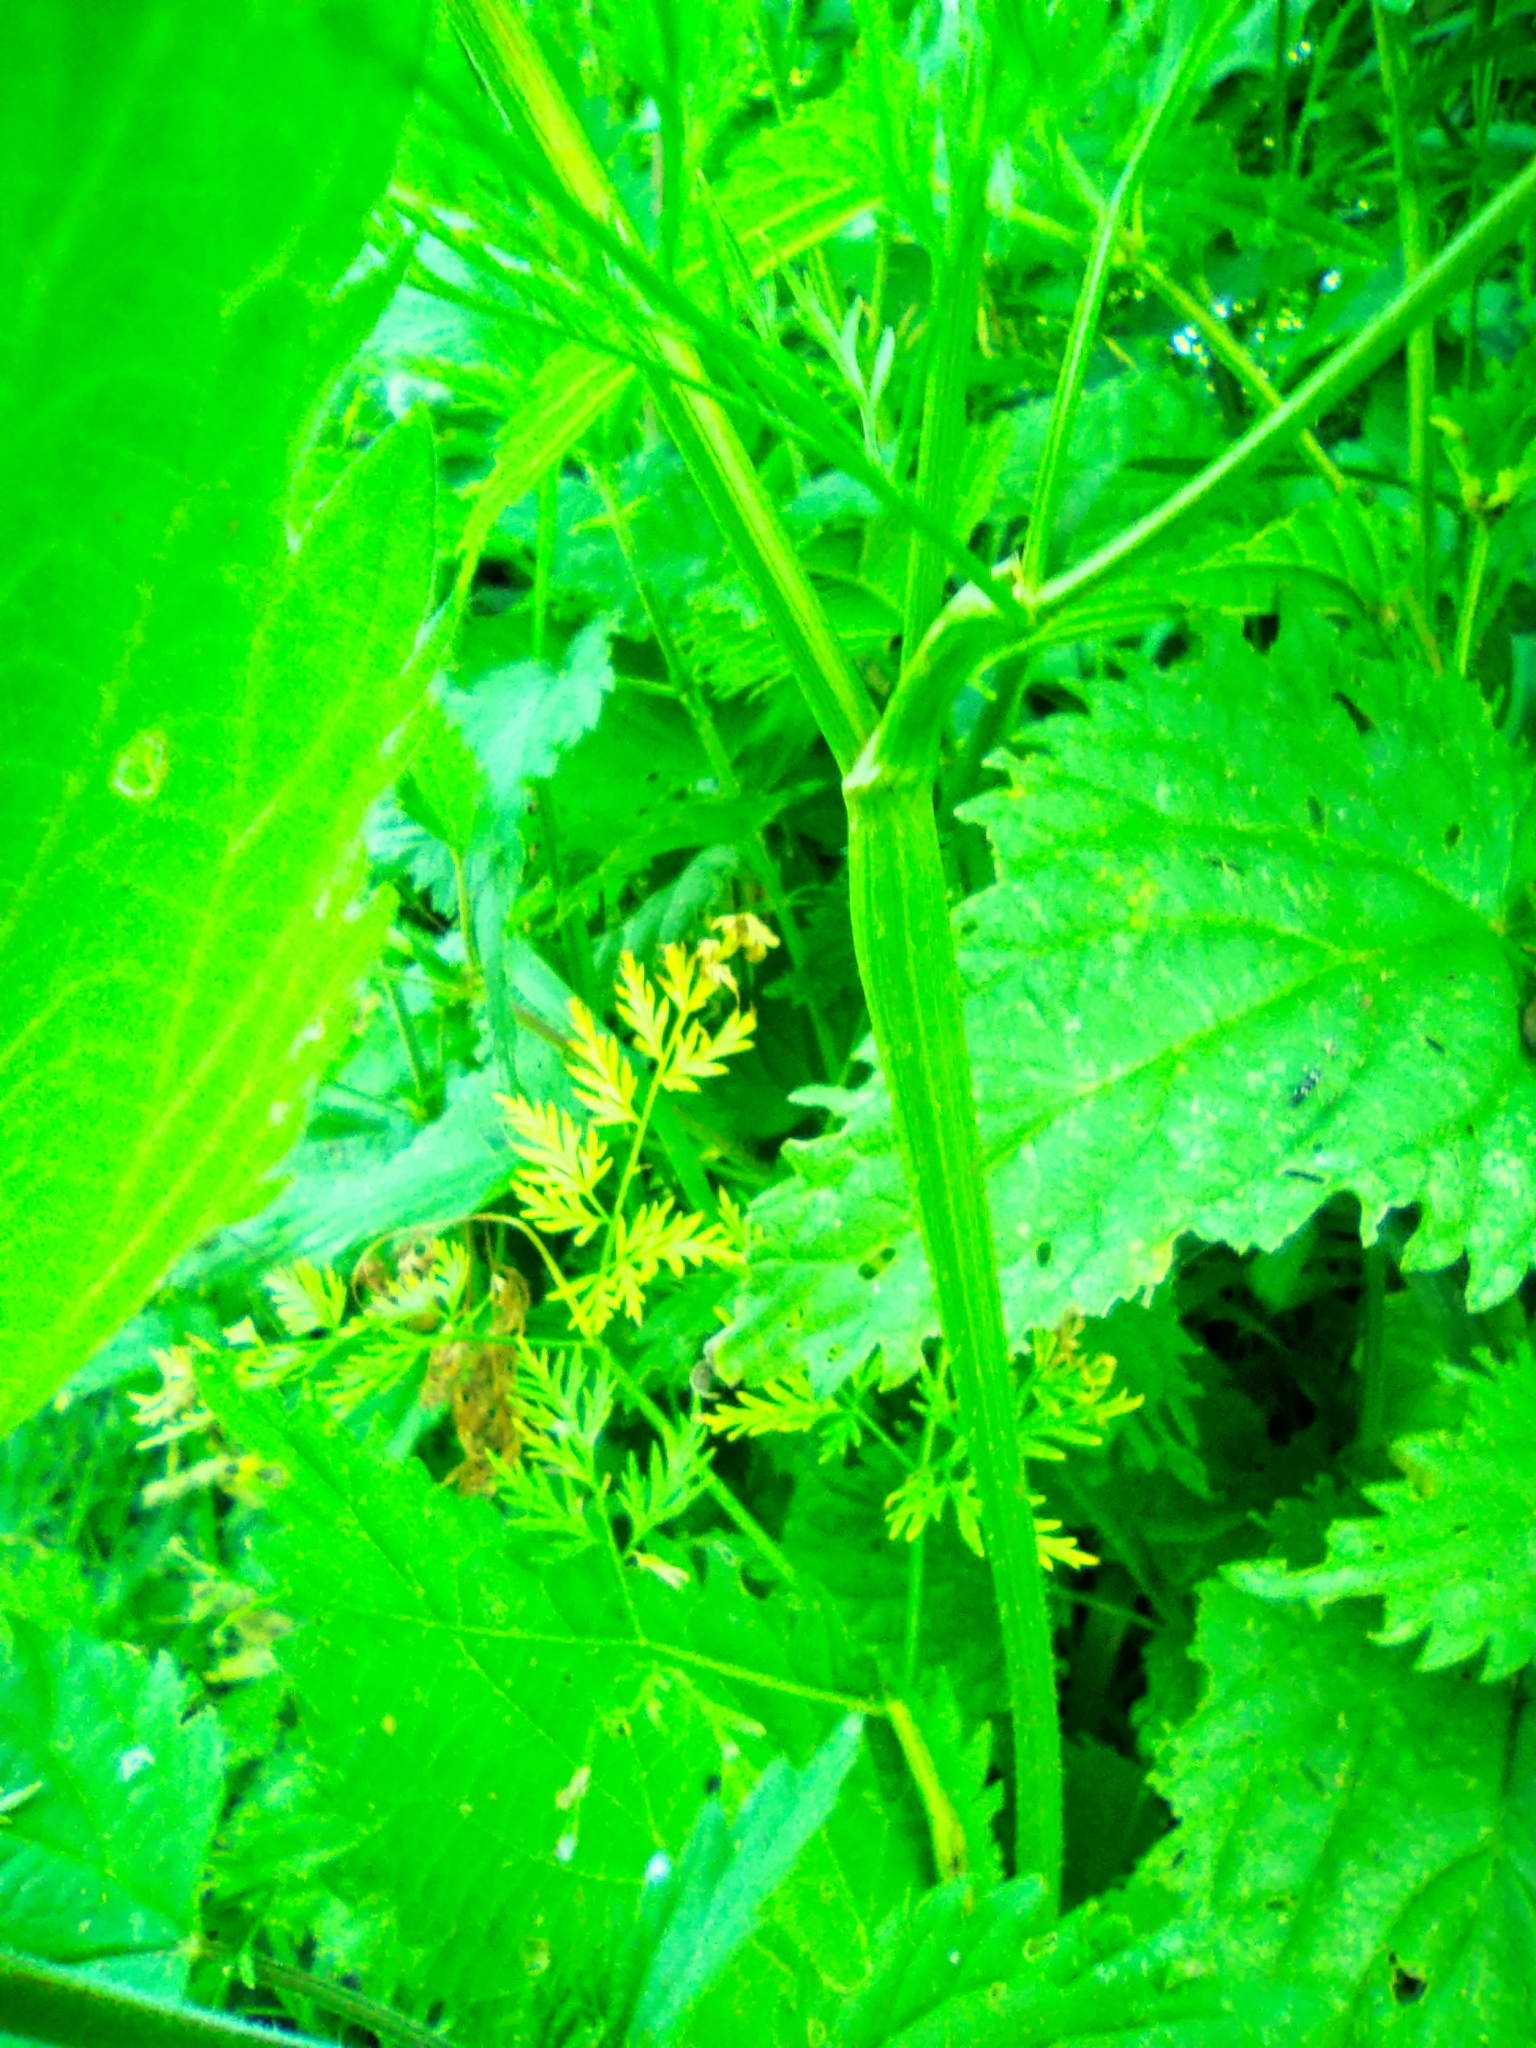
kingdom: Plantae
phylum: Tracheophyta
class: Magnoliopsida
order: Apiales
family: Apiaceae
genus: Chaerophyllum
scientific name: Chaerophyllum prescottii
